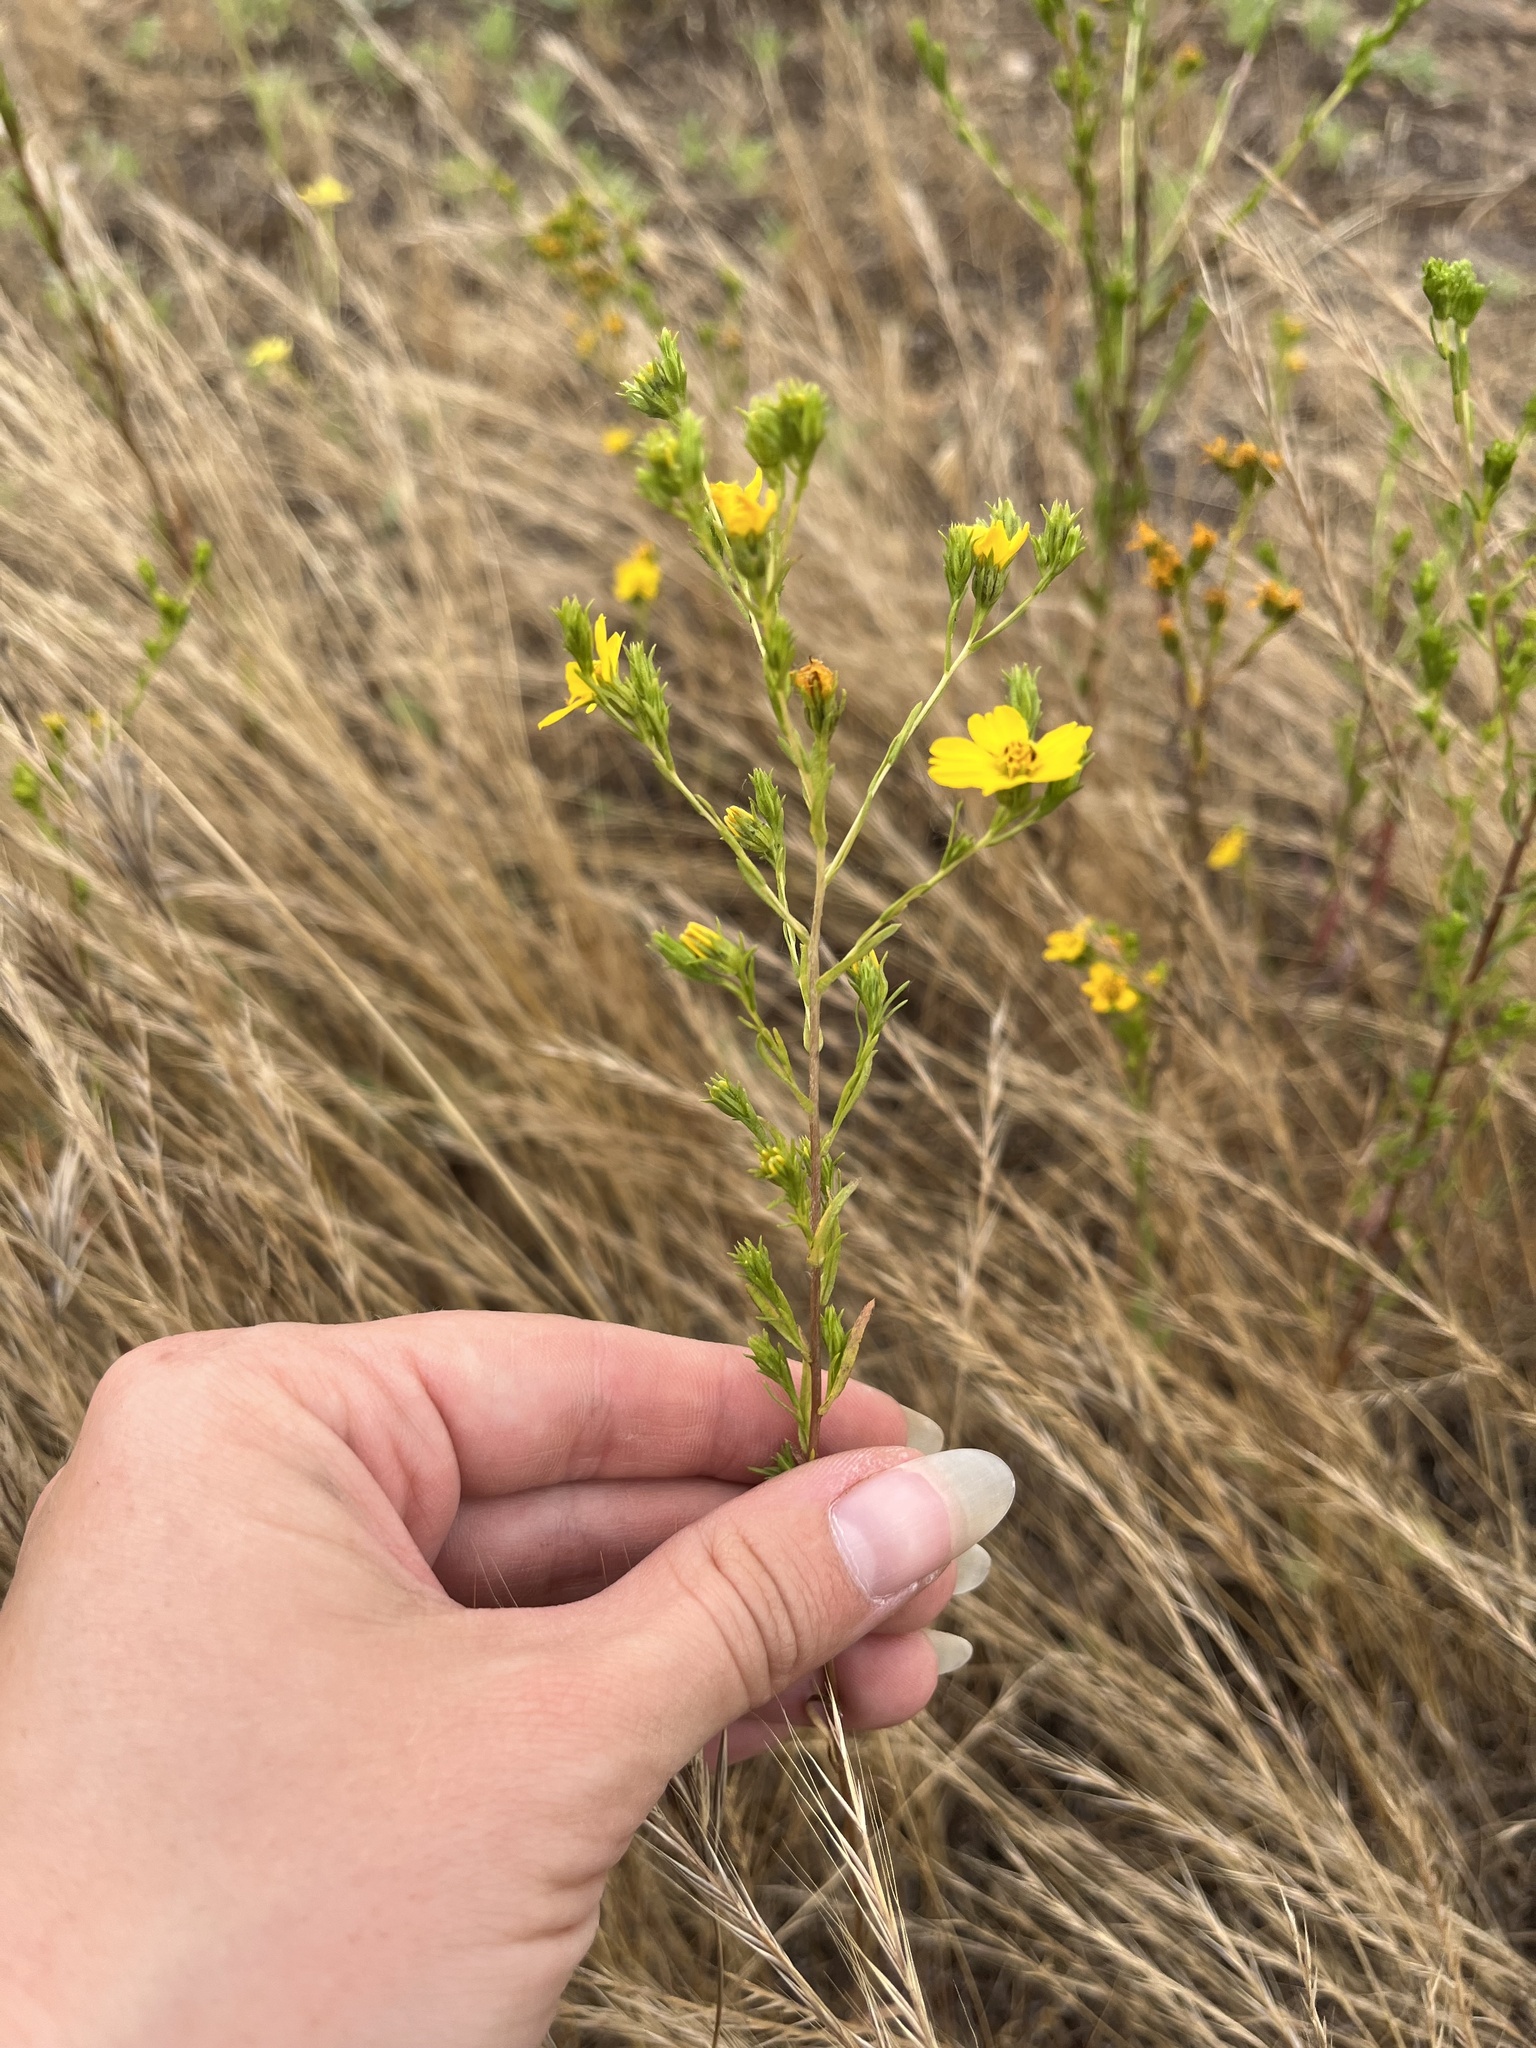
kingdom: Plantae
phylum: Tracheophyta
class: Magnoliopsida
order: Asterales
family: Asteraceae
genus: Deinandra
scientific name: Deinandra fasciculata
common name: Clustered tarweed
